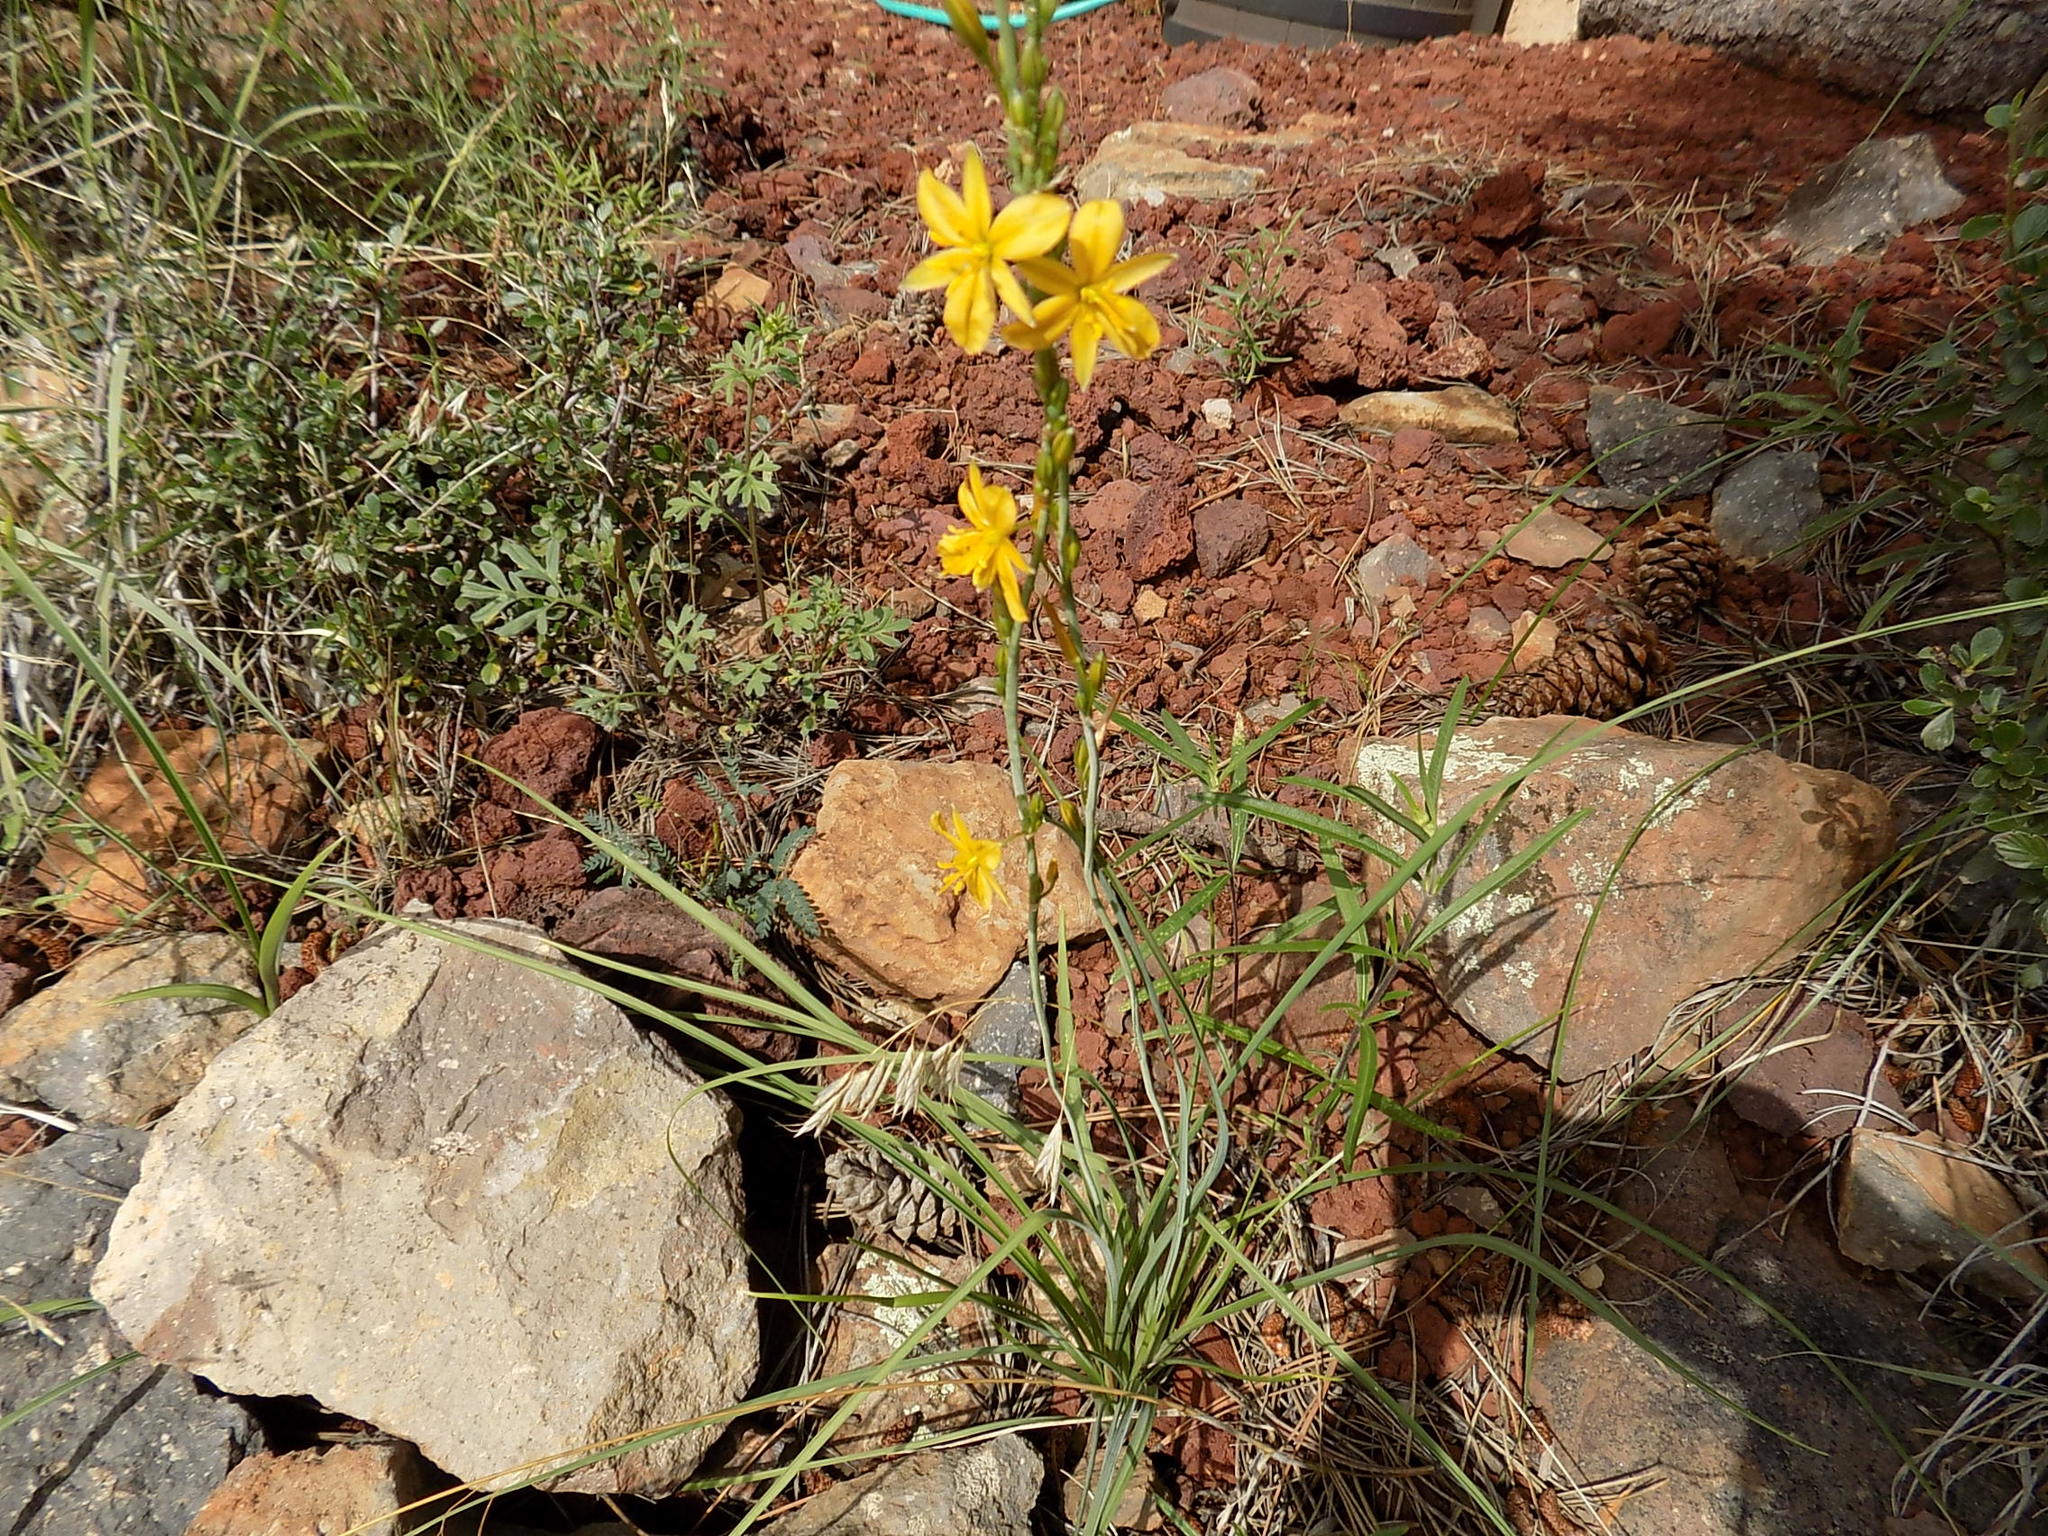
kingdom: Plantae
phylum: Tracheophyta
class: Liliopsida
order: Asparagales
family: Asparagaceae
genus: Echeandia
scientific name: Echeandia flavescens
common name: Amberlily
